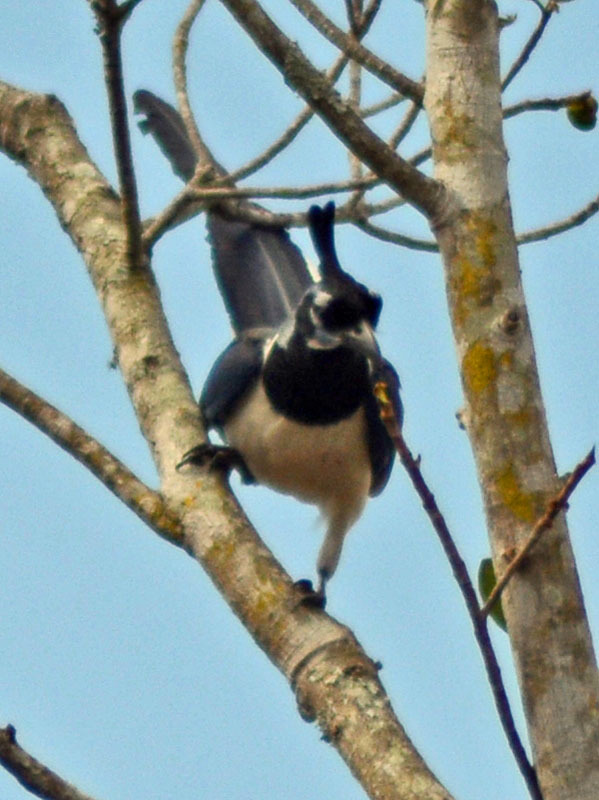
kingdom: Animalia
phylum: Chordata
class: Aves
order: Passeriformes
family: Corvidae
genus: Calocitta
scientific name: Calocitta colliei
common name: Black-throated magpie-jay
